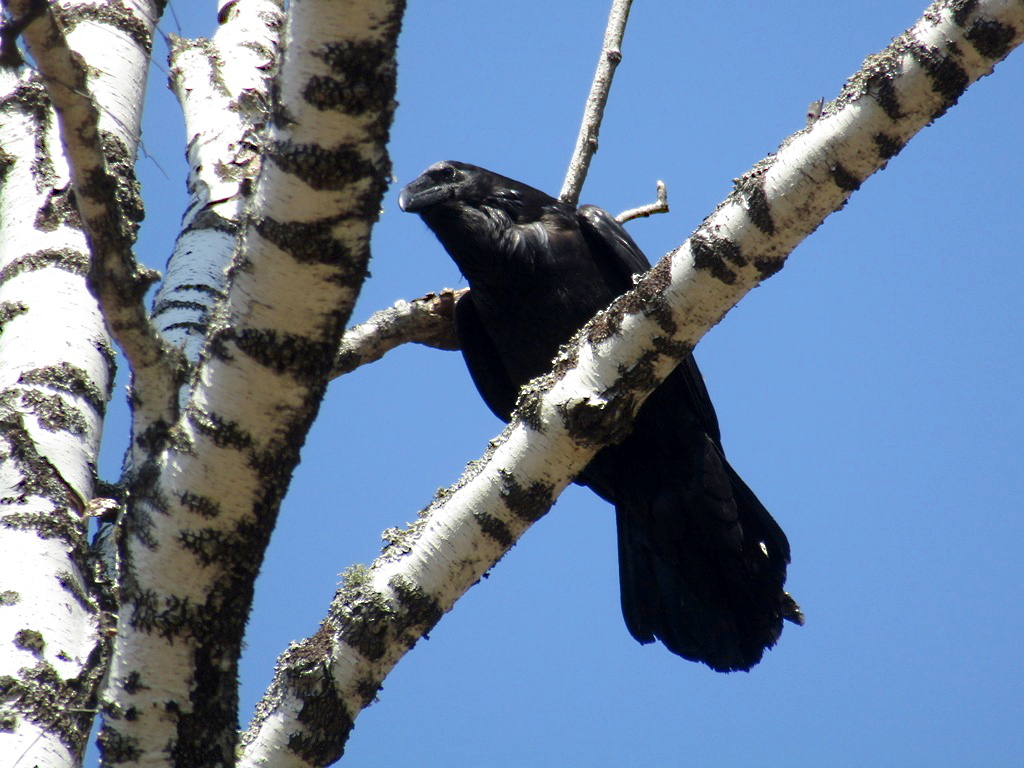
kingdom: Animalia
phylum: Chordata
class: Aves
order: Passeriformes
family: Corvidae
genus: Corvus
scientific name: Corvus corax
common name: Common raven
